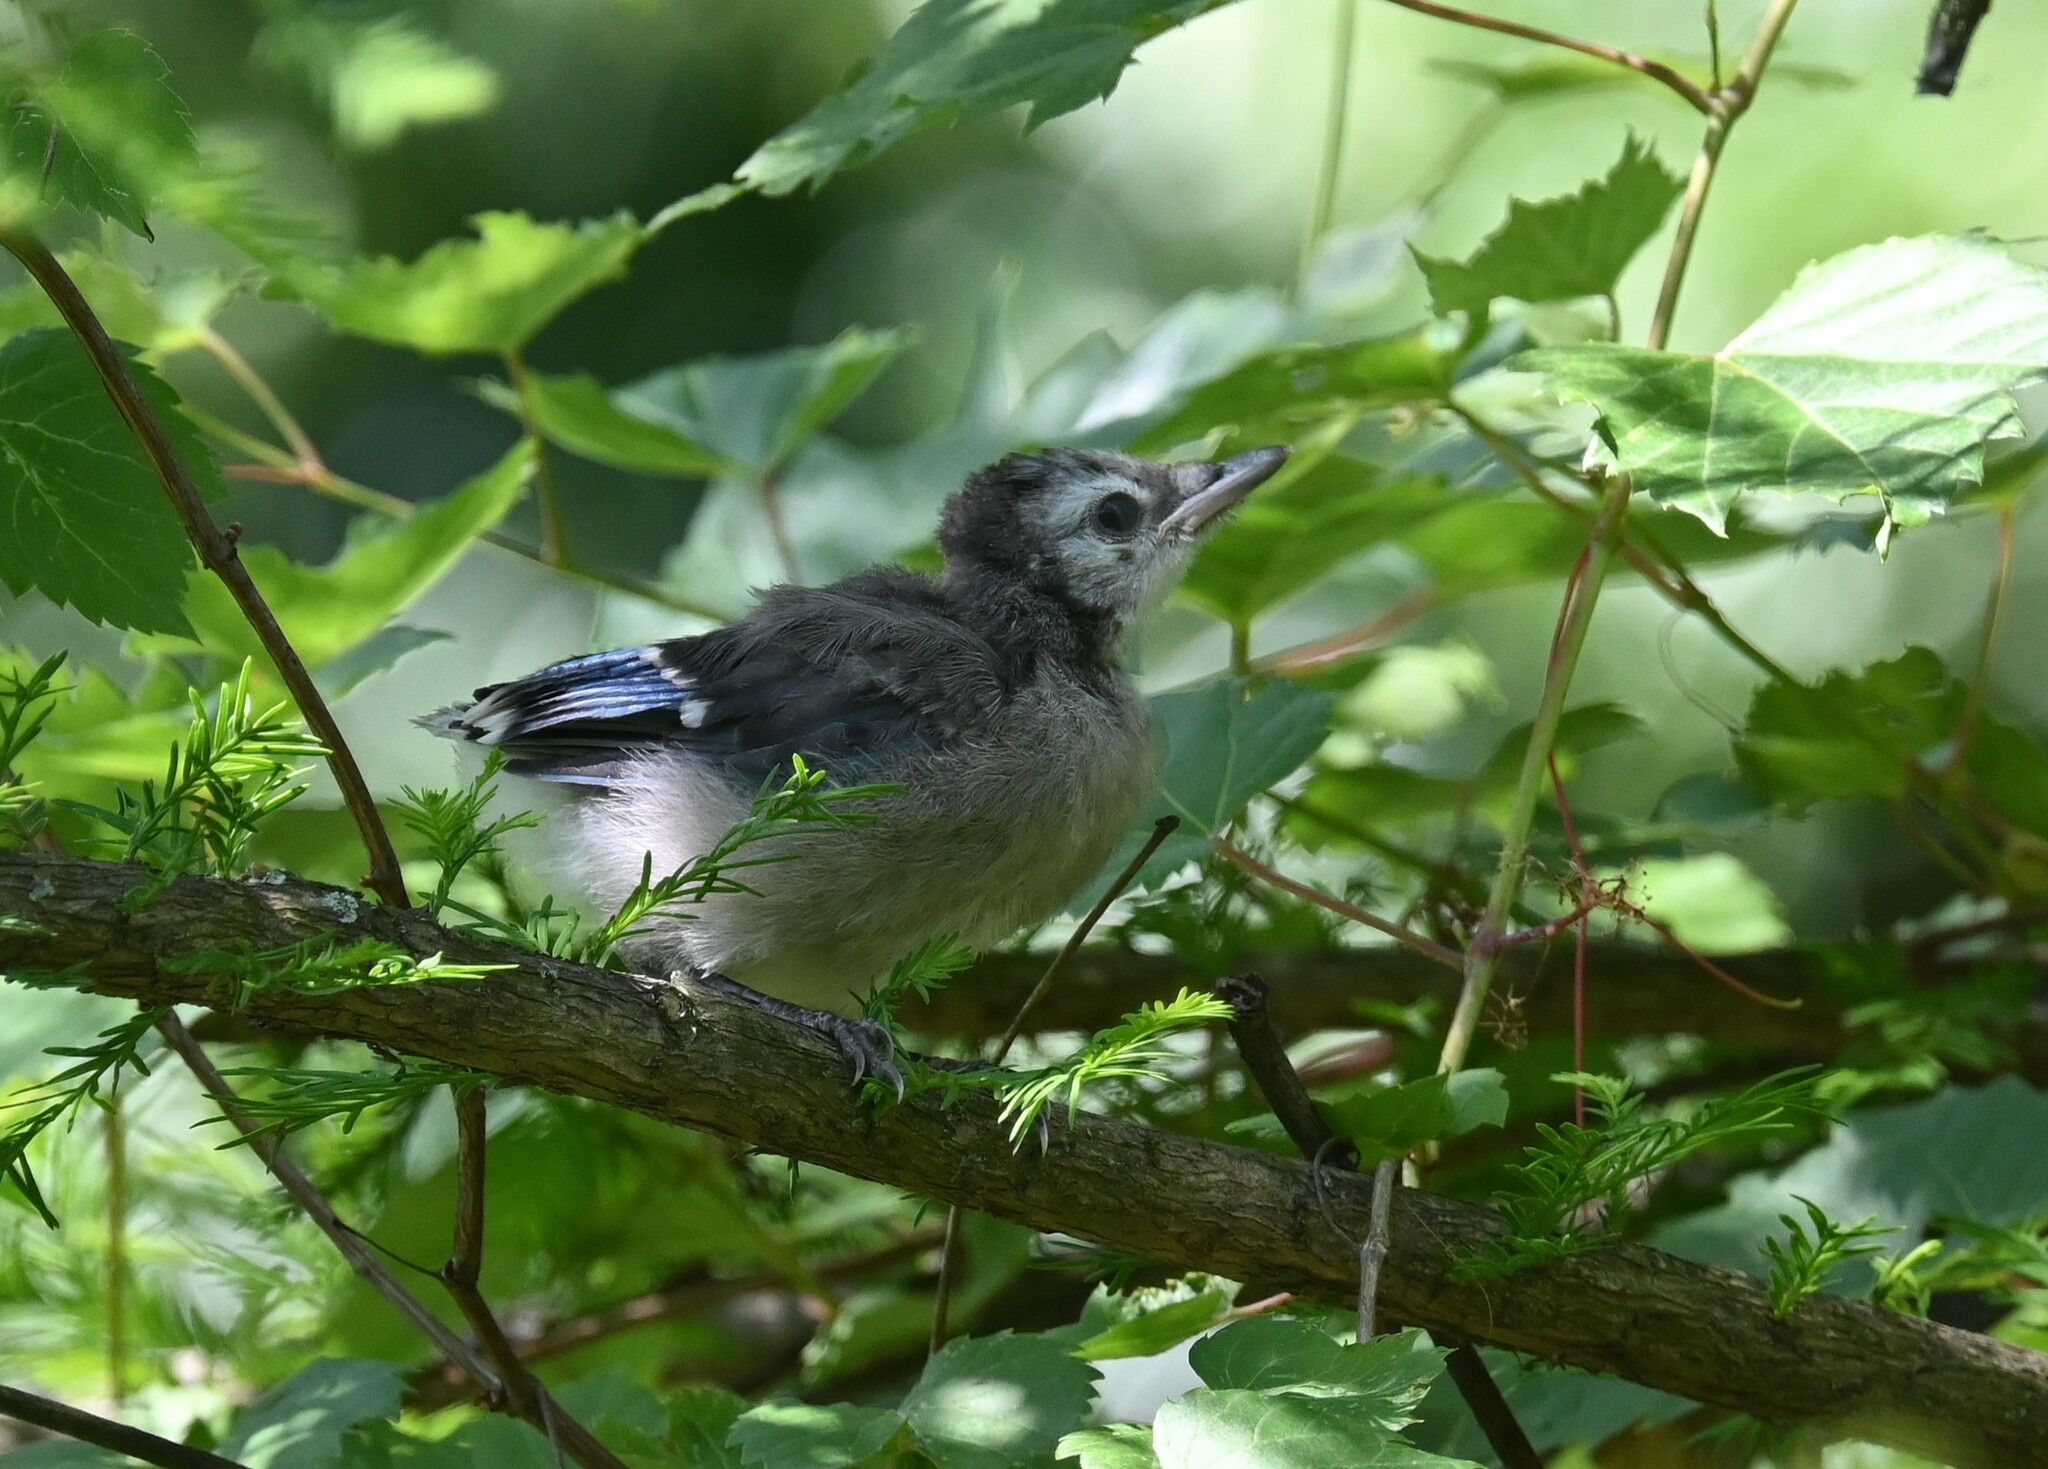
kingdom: Animalia
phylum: Chordata
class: Aves
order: Passeriformes
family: Corvidae
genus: Cyanocitta
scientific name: Cyanocitta cristata
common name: Blue jay
